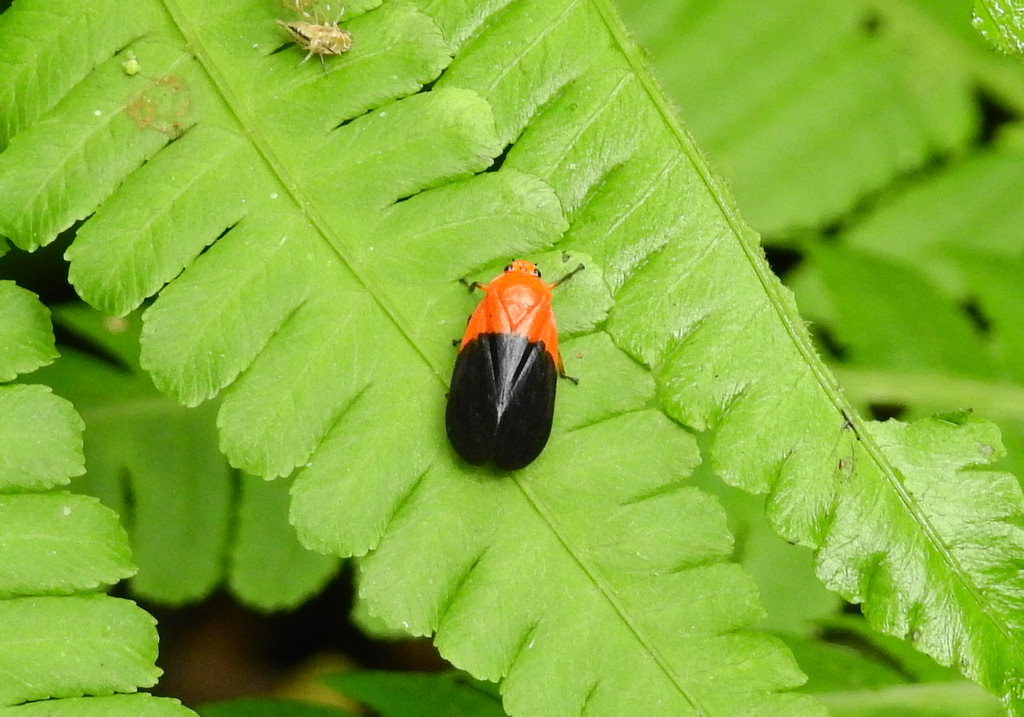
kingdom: Animalia
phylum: Arthropoda
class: Insecta
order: Hemiptera
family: Cercopidae
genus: Sphenorhina
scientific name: Sphenorhina rhodopepla
